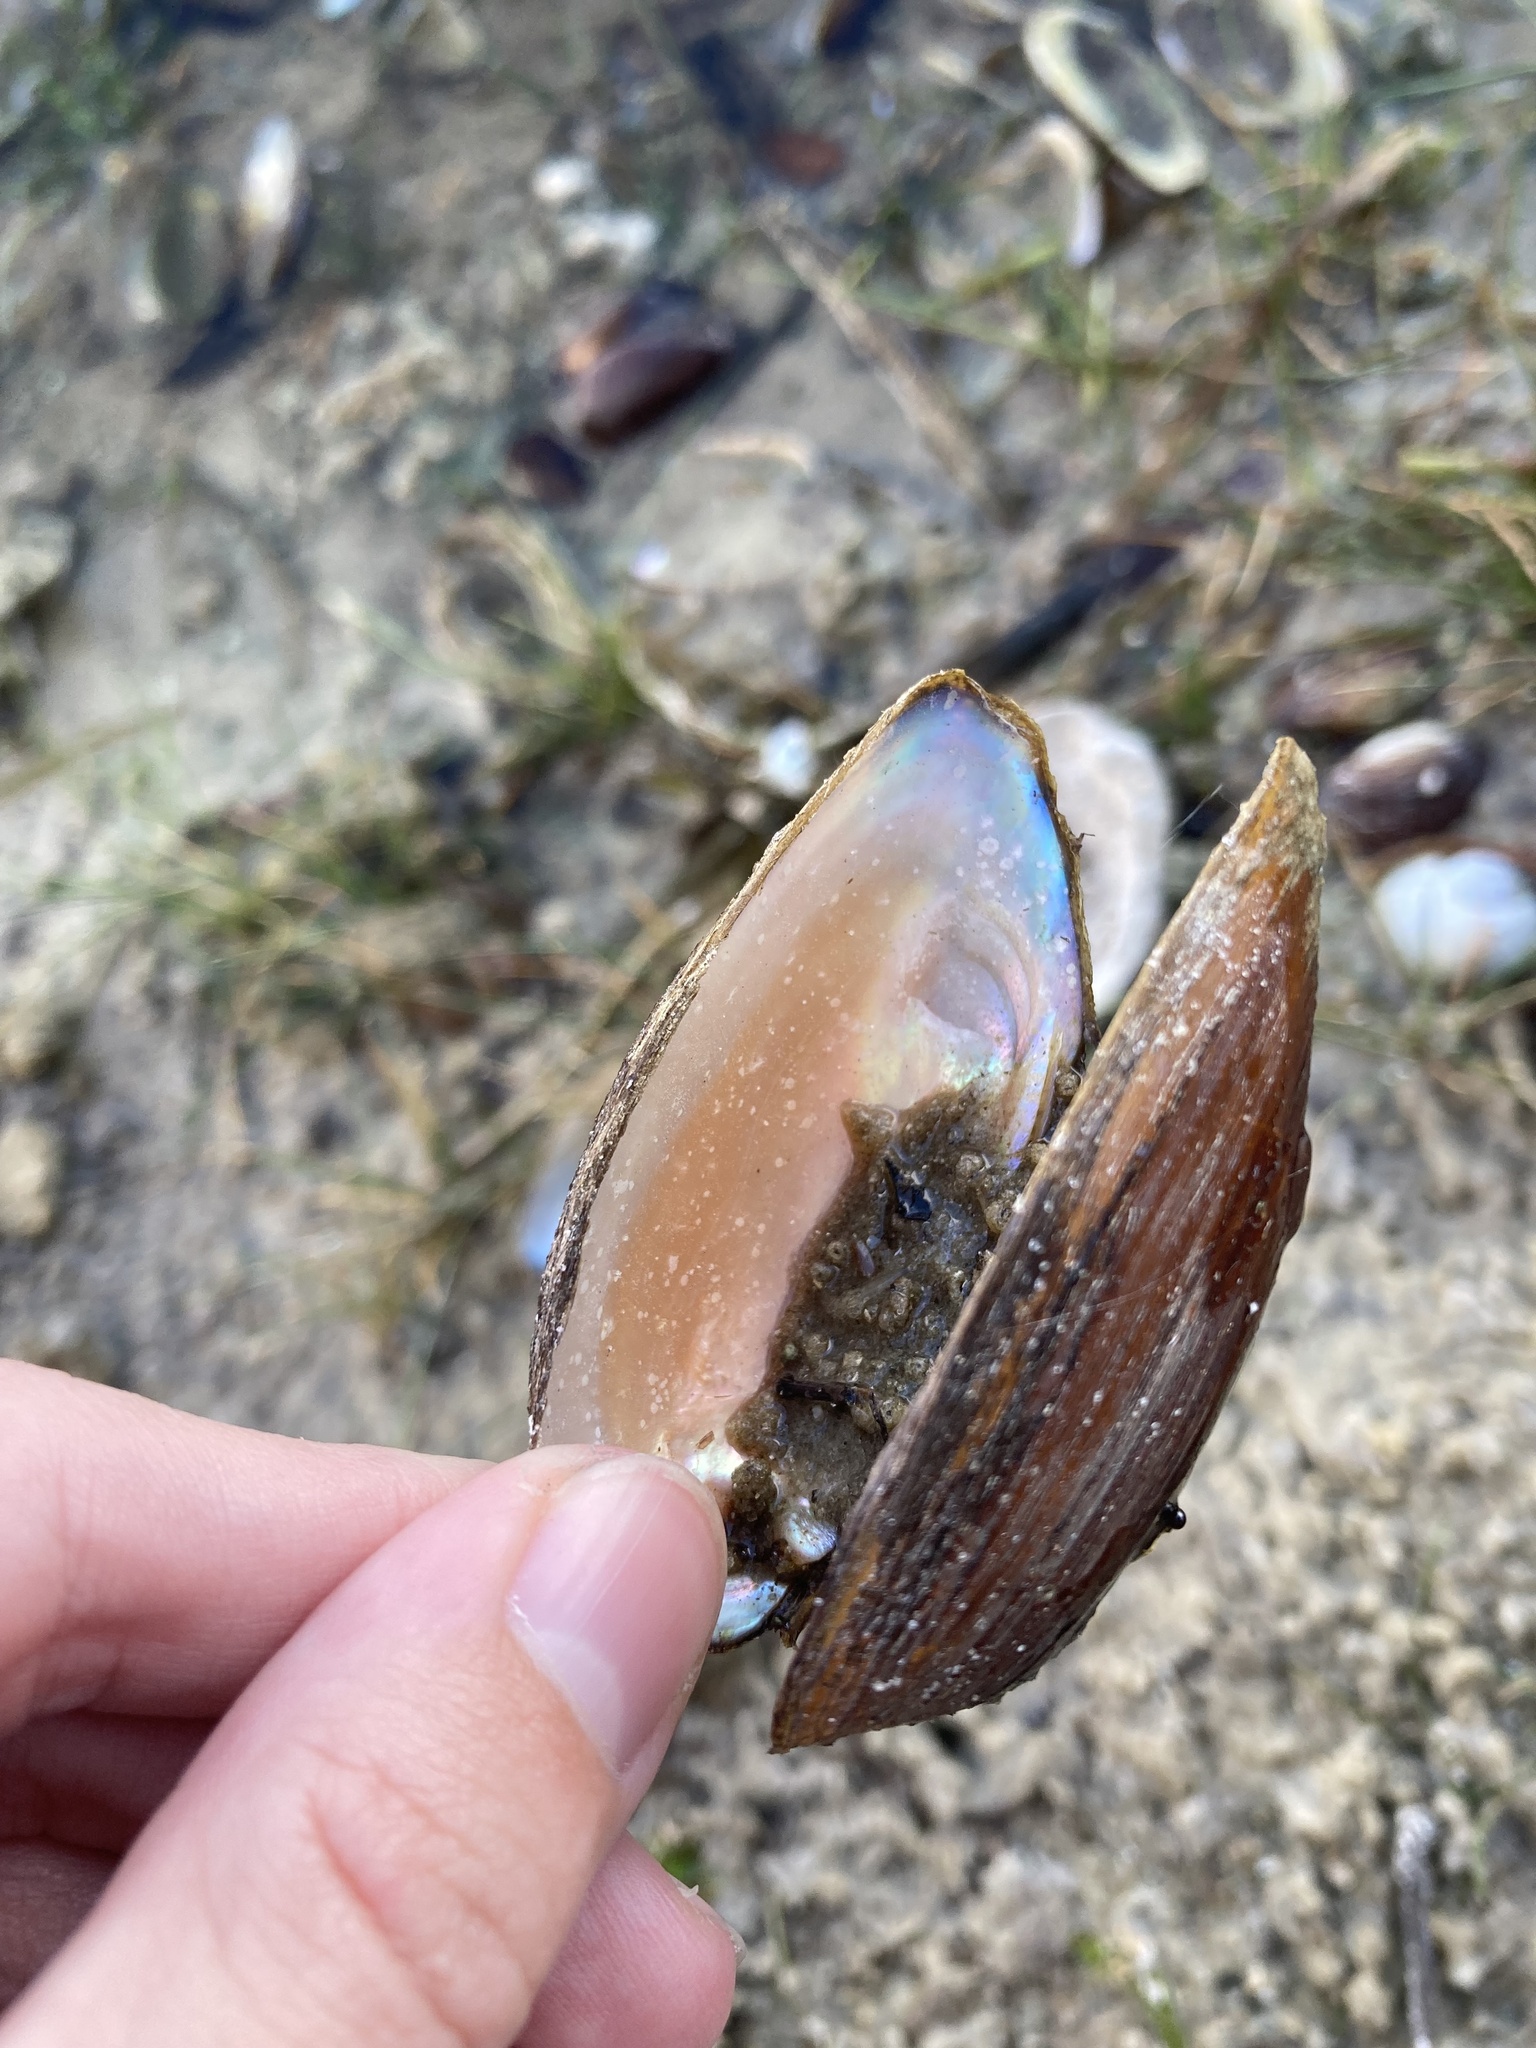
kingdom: Animalia
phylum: Mollusca
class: Bivalvia
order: Unionida
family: Unionidae
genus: Elliptio
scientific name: Elliptio jayensis
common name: Florida spike
